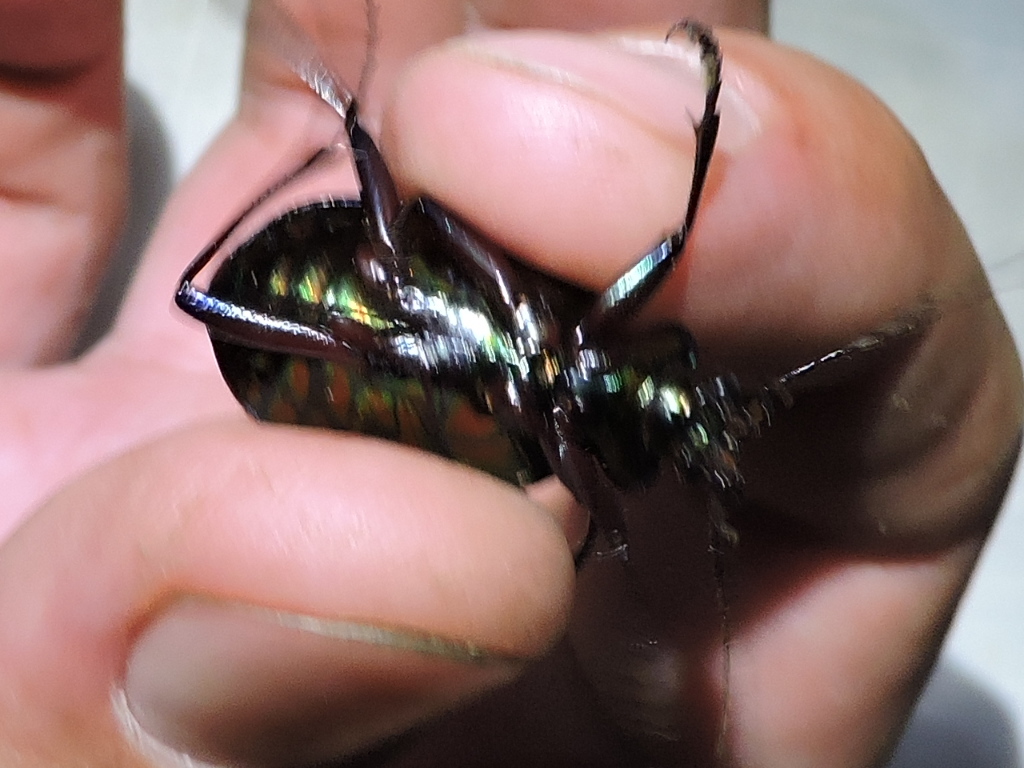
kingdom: Animalia
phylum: Arthropoda
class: Insecta
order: Coleoptera
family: Carabidae
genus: Calosoma
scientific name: Calosoma scrutator
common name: Fiery searcher beetle
